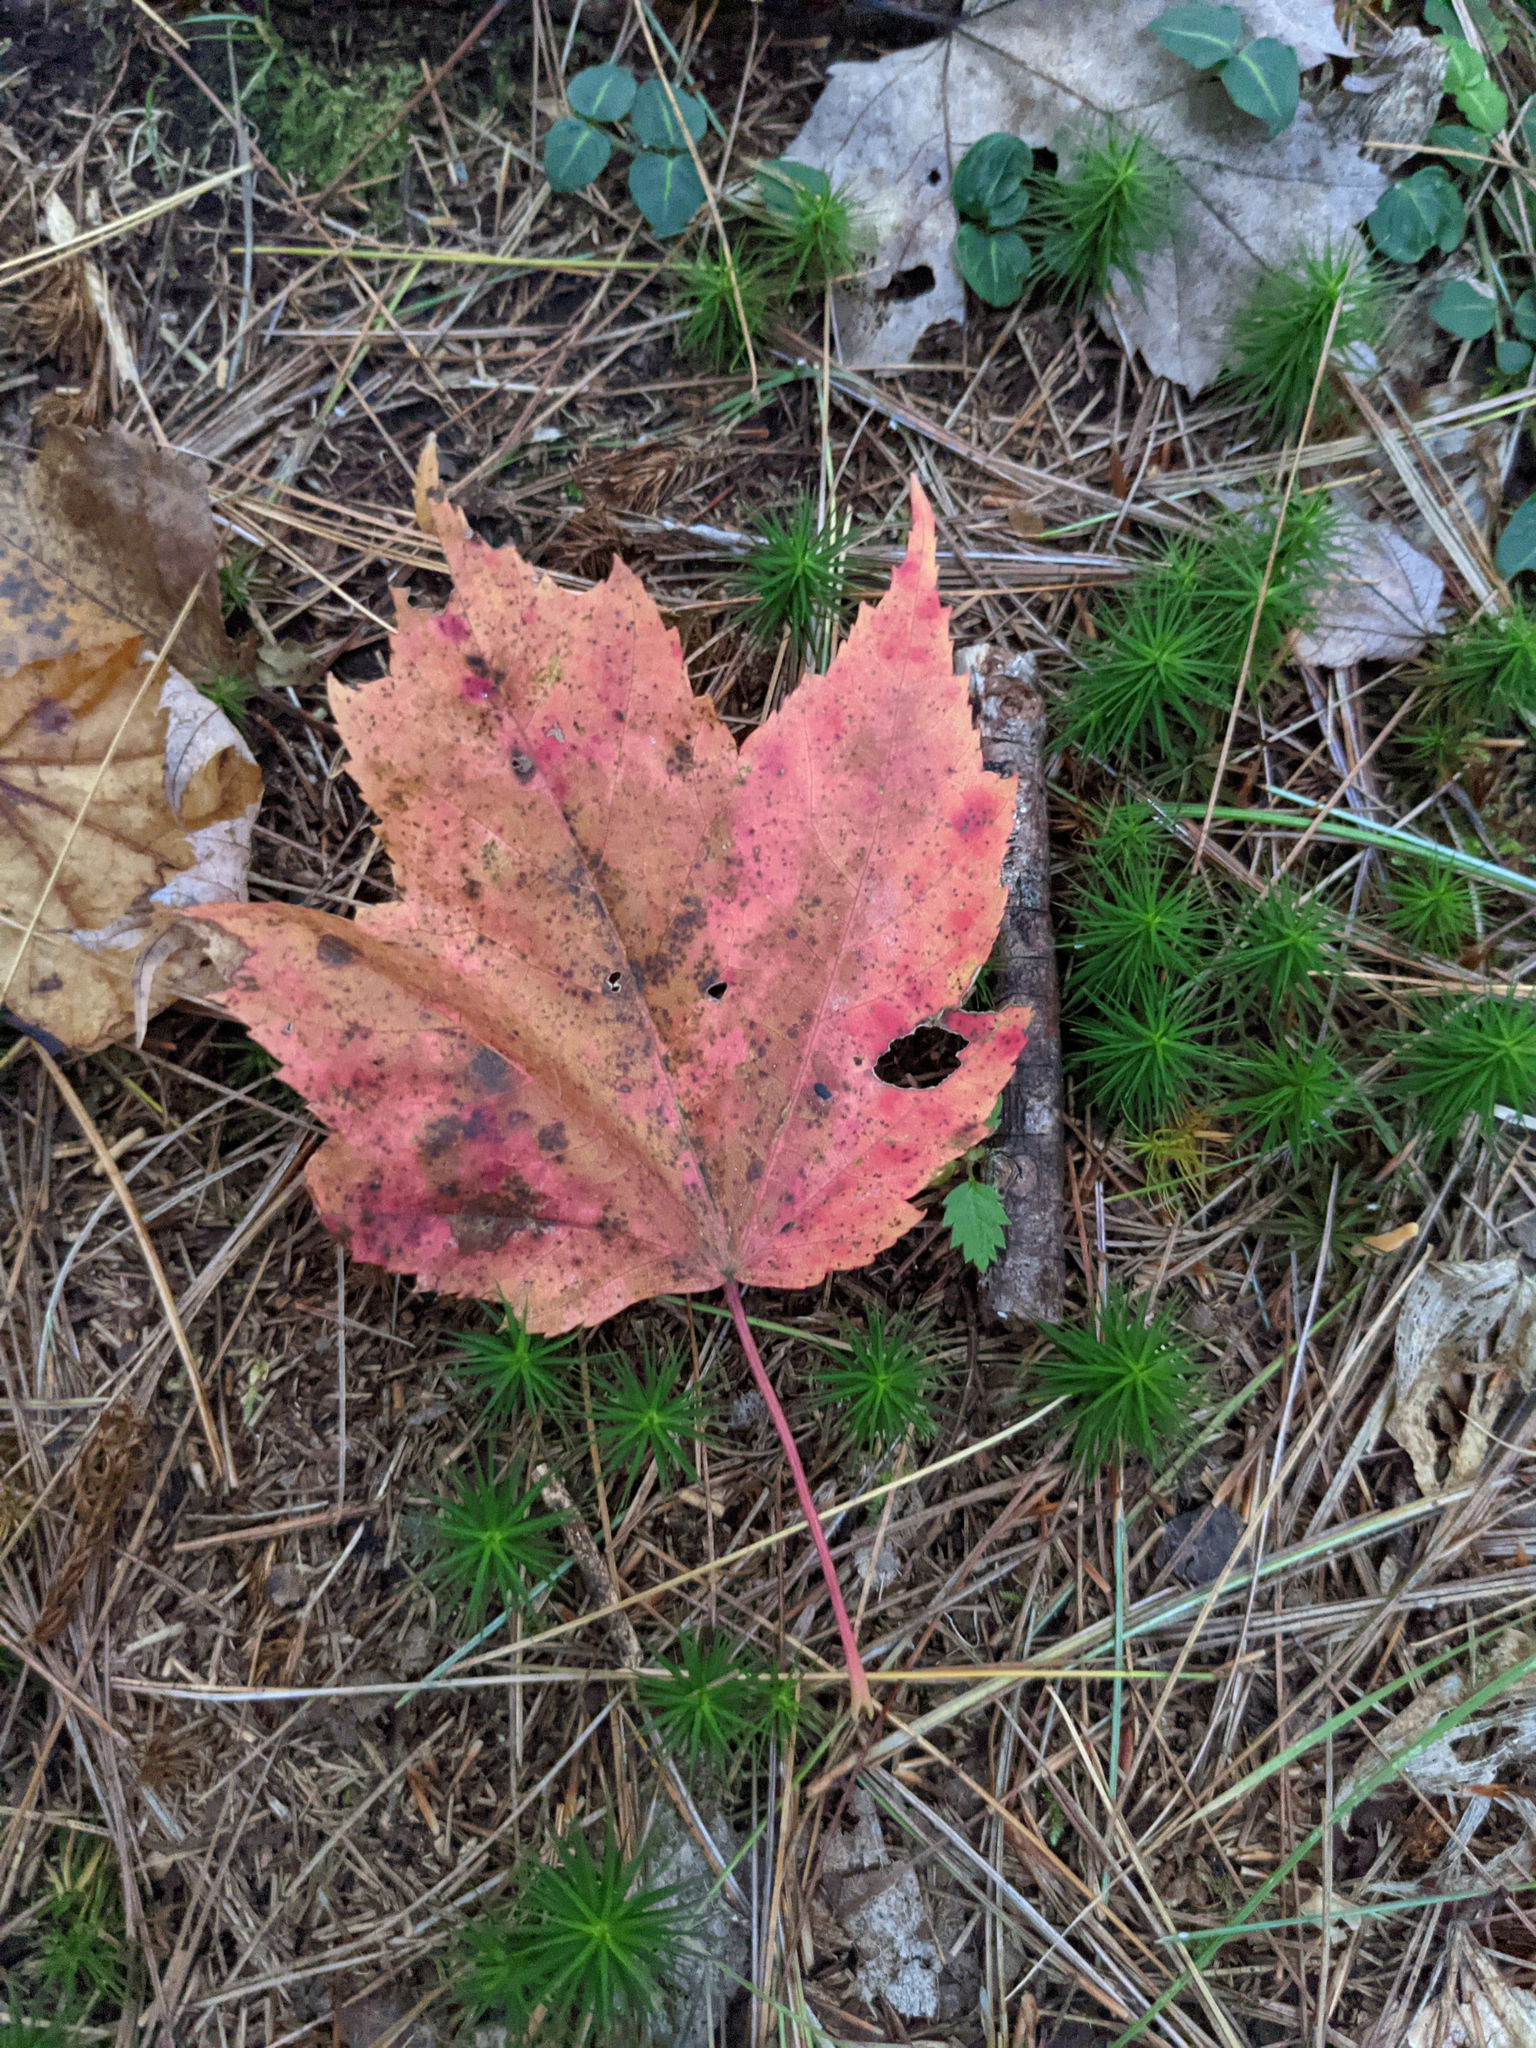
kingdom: Plantae
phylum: Tracheophyta
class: Magnoliopsida
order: Sapindales
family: Sapindaceae
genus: Acer
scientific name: Acer rubrum
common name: Red maple
